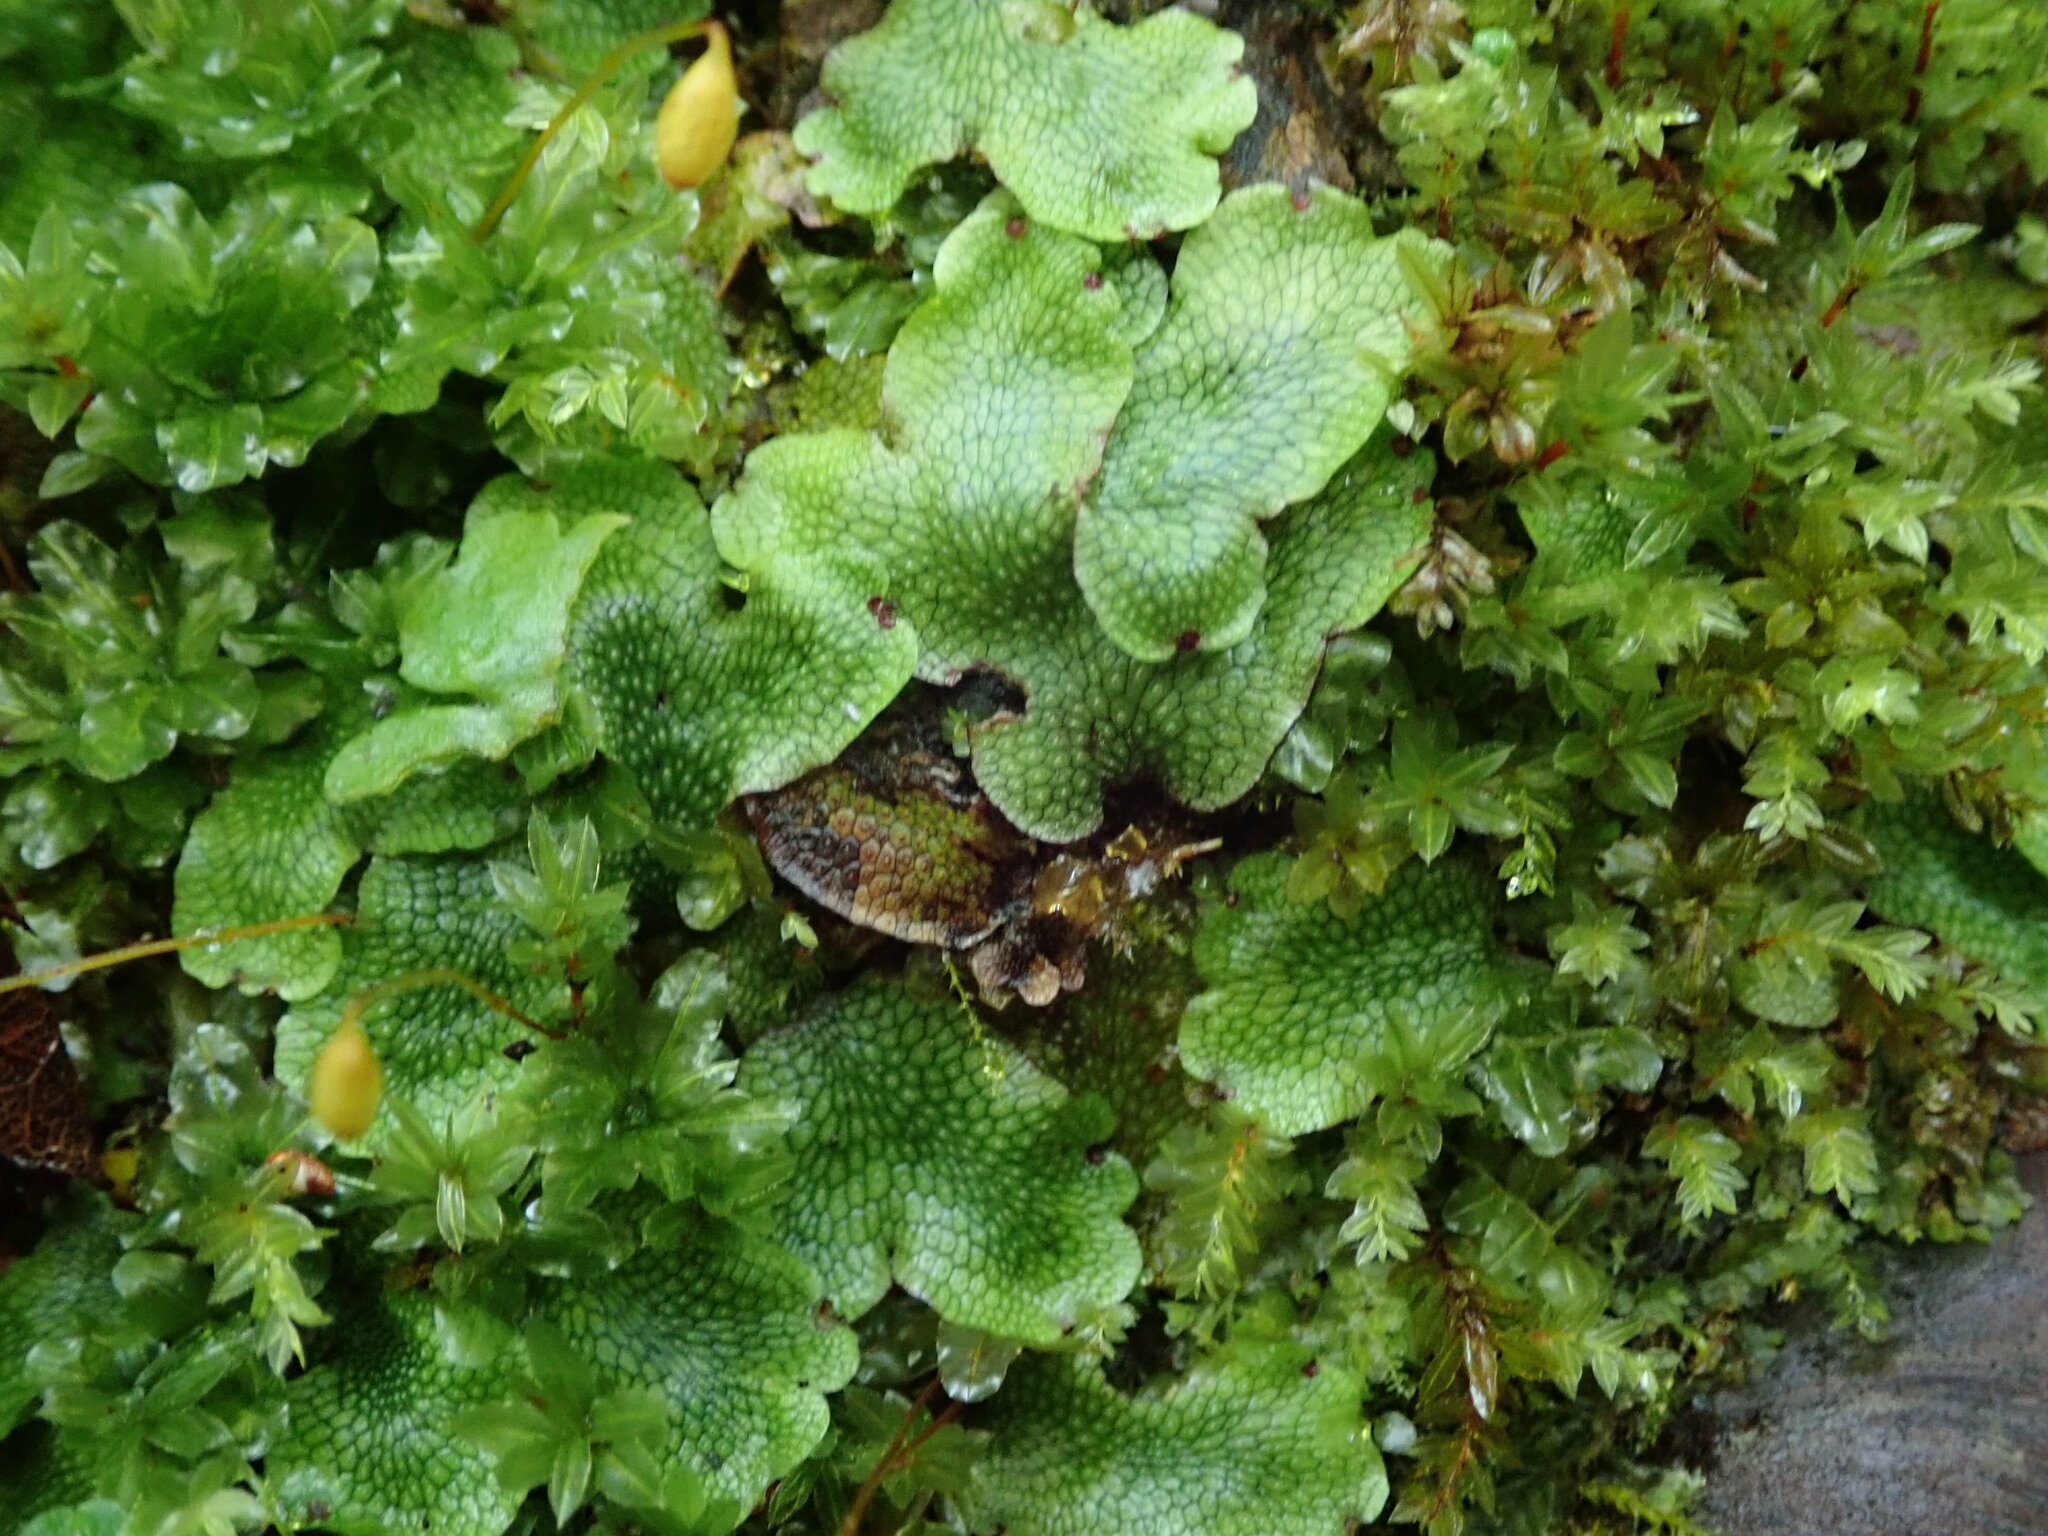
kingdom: Plantae
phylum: Marchantiophyta
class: Marchantiopsida
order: Marchantiales
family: Conocephalaceae
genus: Conocephalum
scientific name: Conocephalum salebrosum
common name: Cat-tongue liverwort
